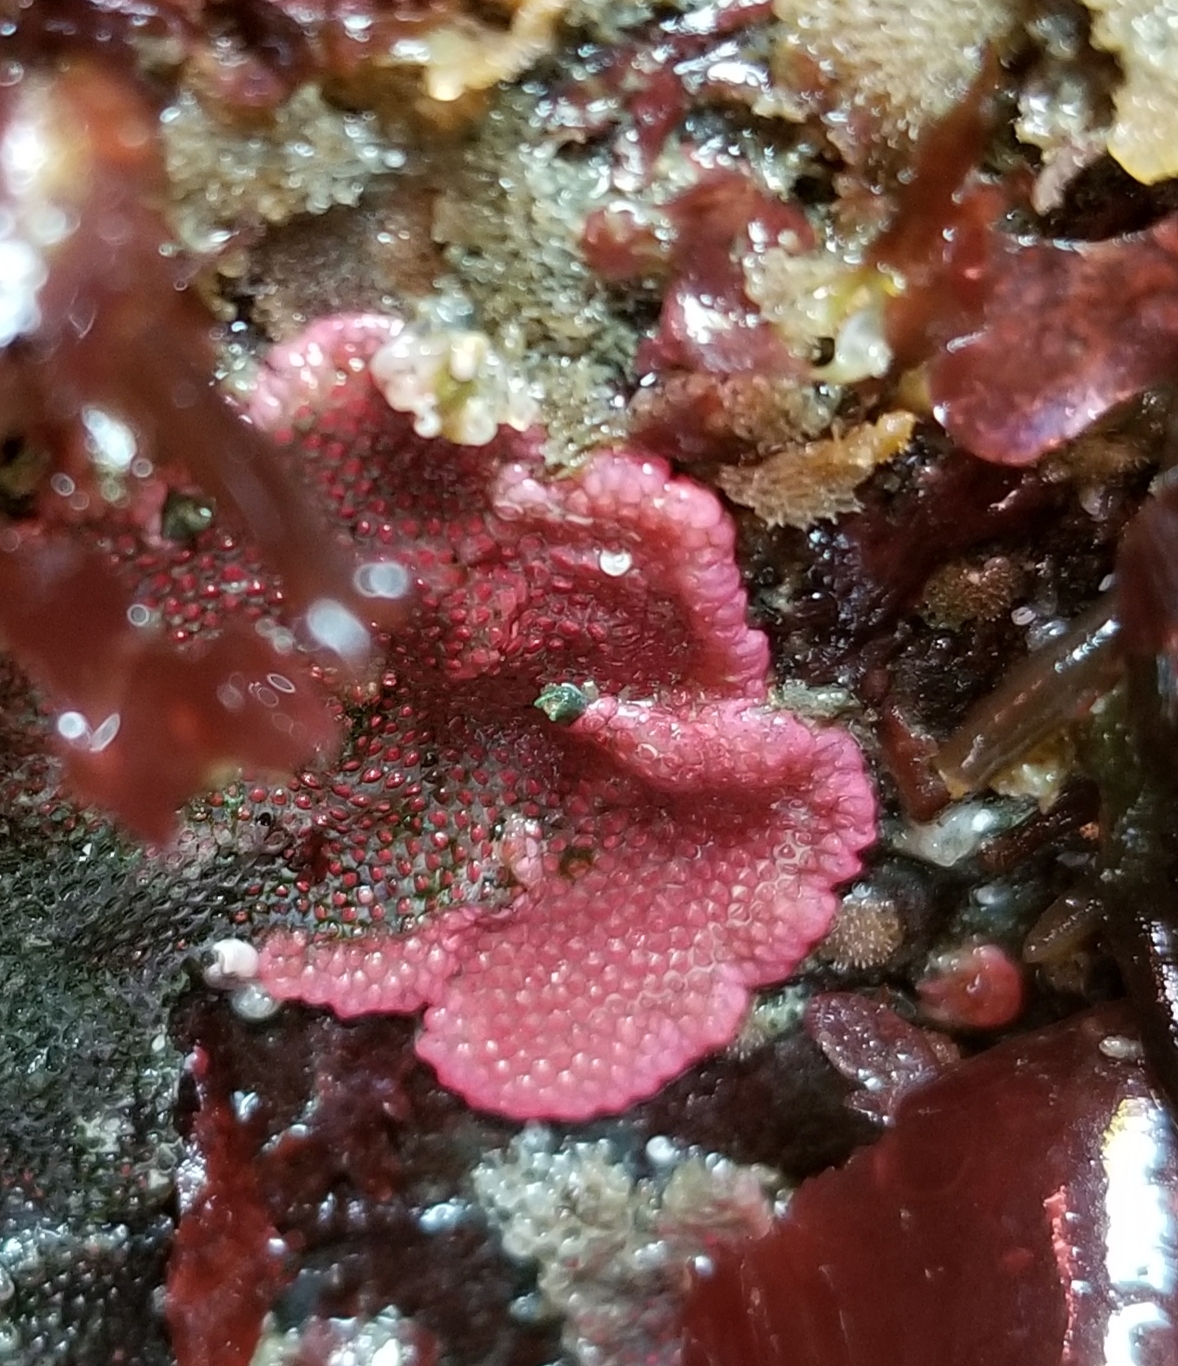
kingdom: Animalia
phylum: Bryozoa
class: Gymnolaemata
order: Cheilostomatida
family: Eurystomellidae
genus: Integripelta
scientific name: Integripelta bilabiata
